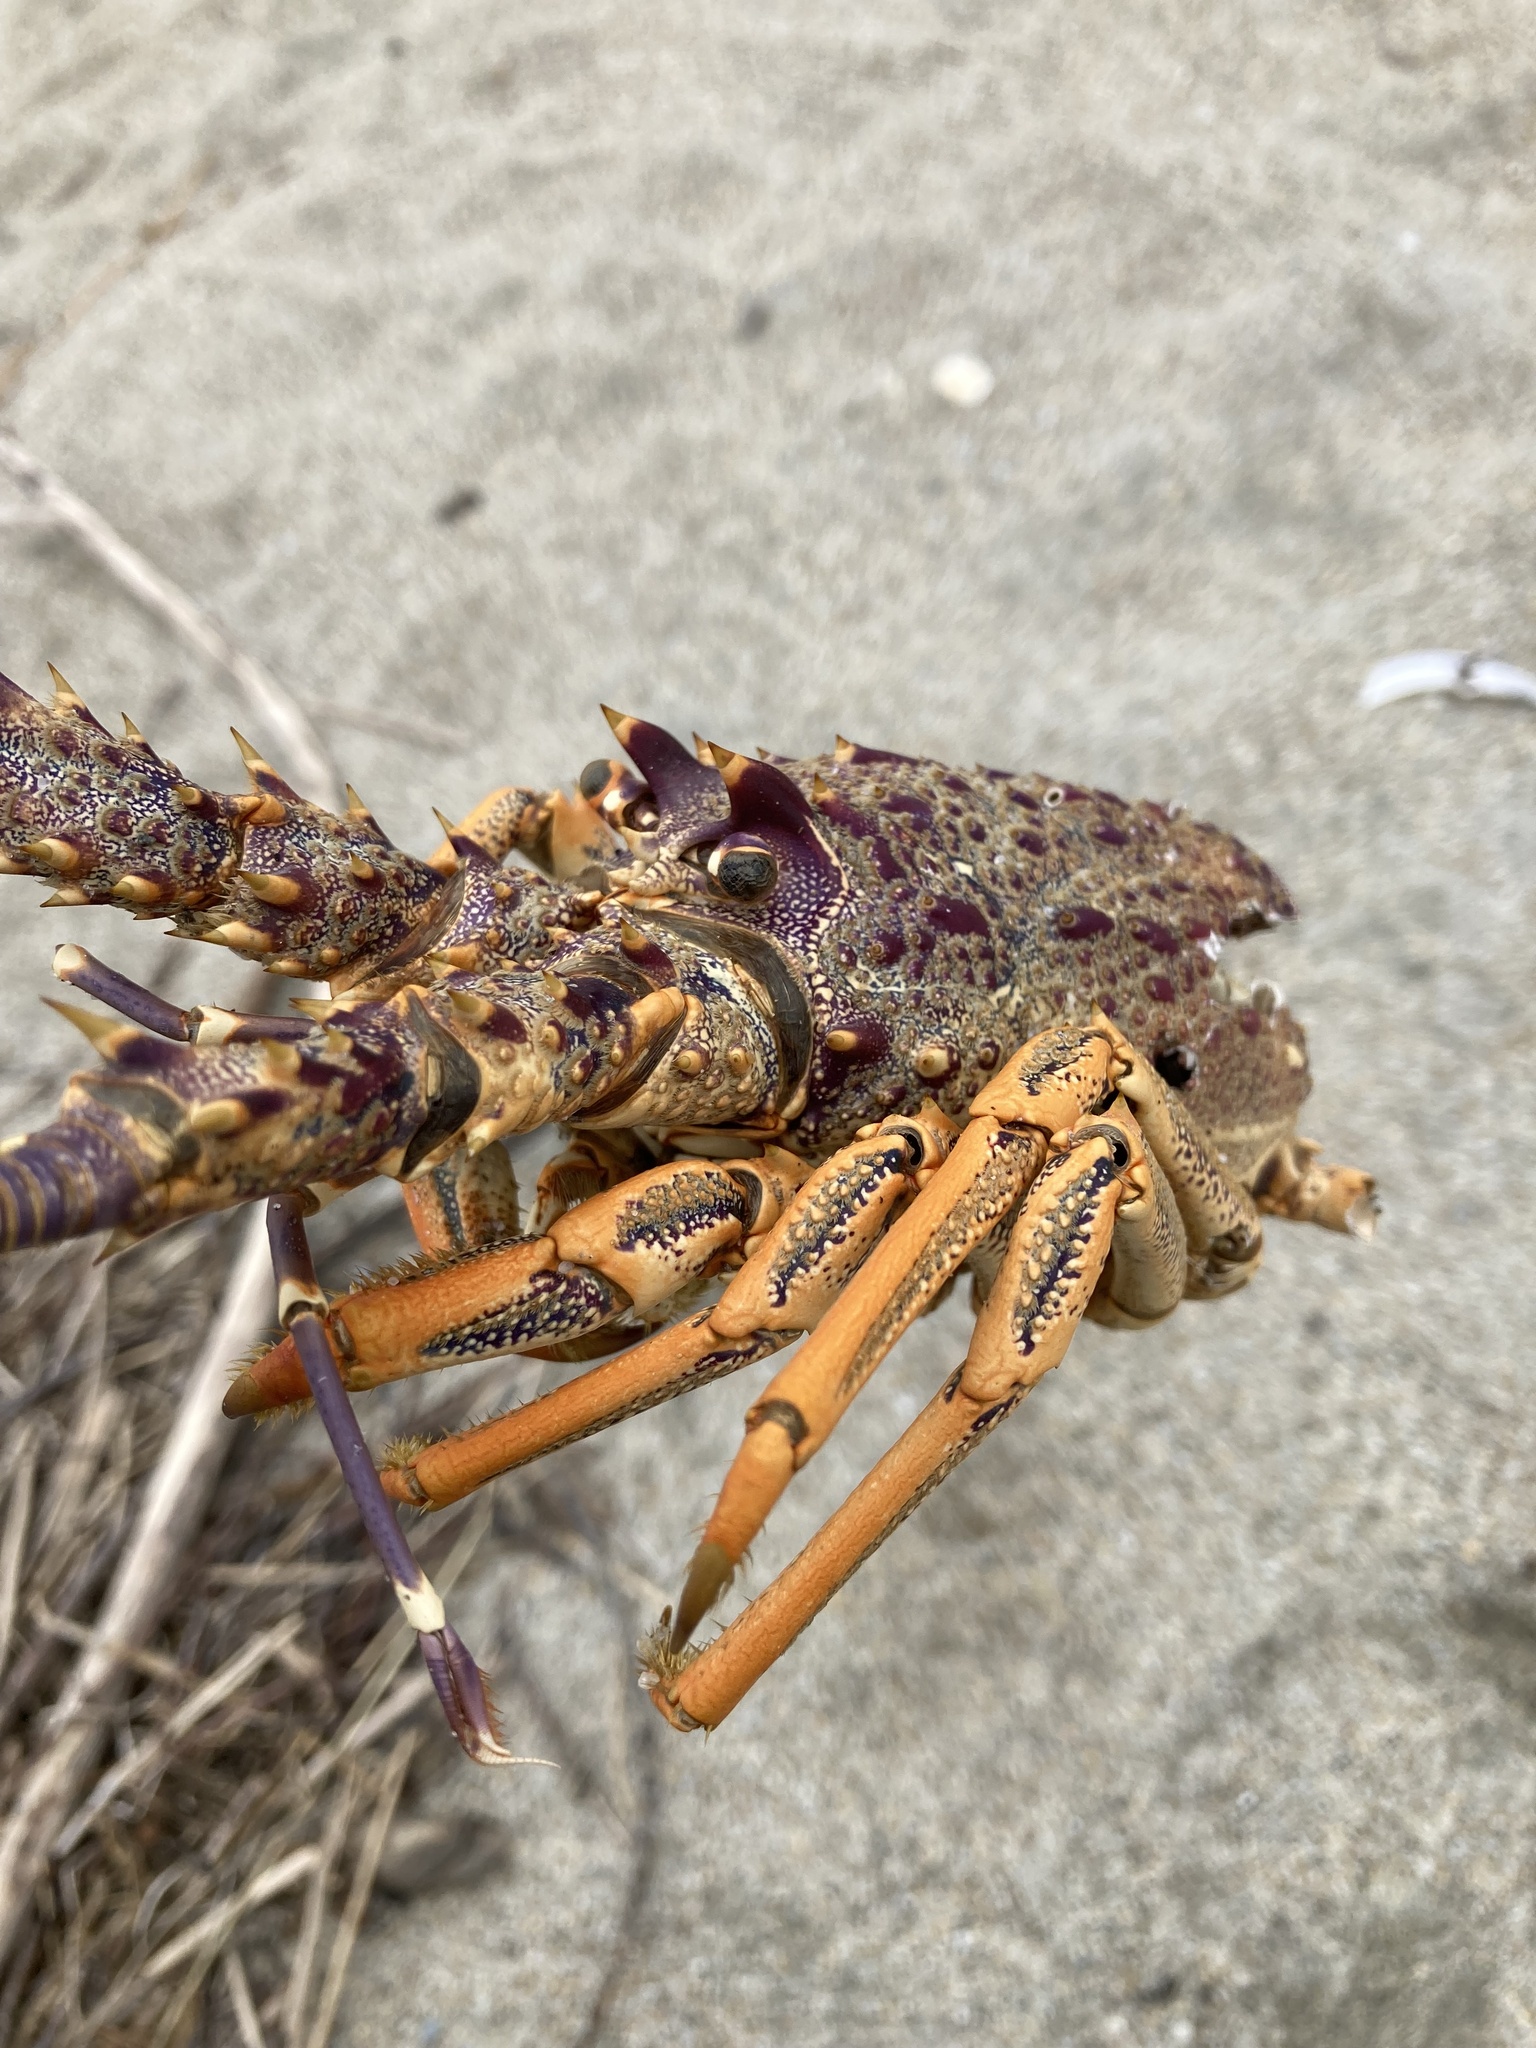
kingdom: Animalia
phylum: Arthropoda
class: Malacostraca
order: Decapoda
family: Palinuridae
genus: Jasus
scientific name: Jasus edwardsii
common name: Red rock lobster
